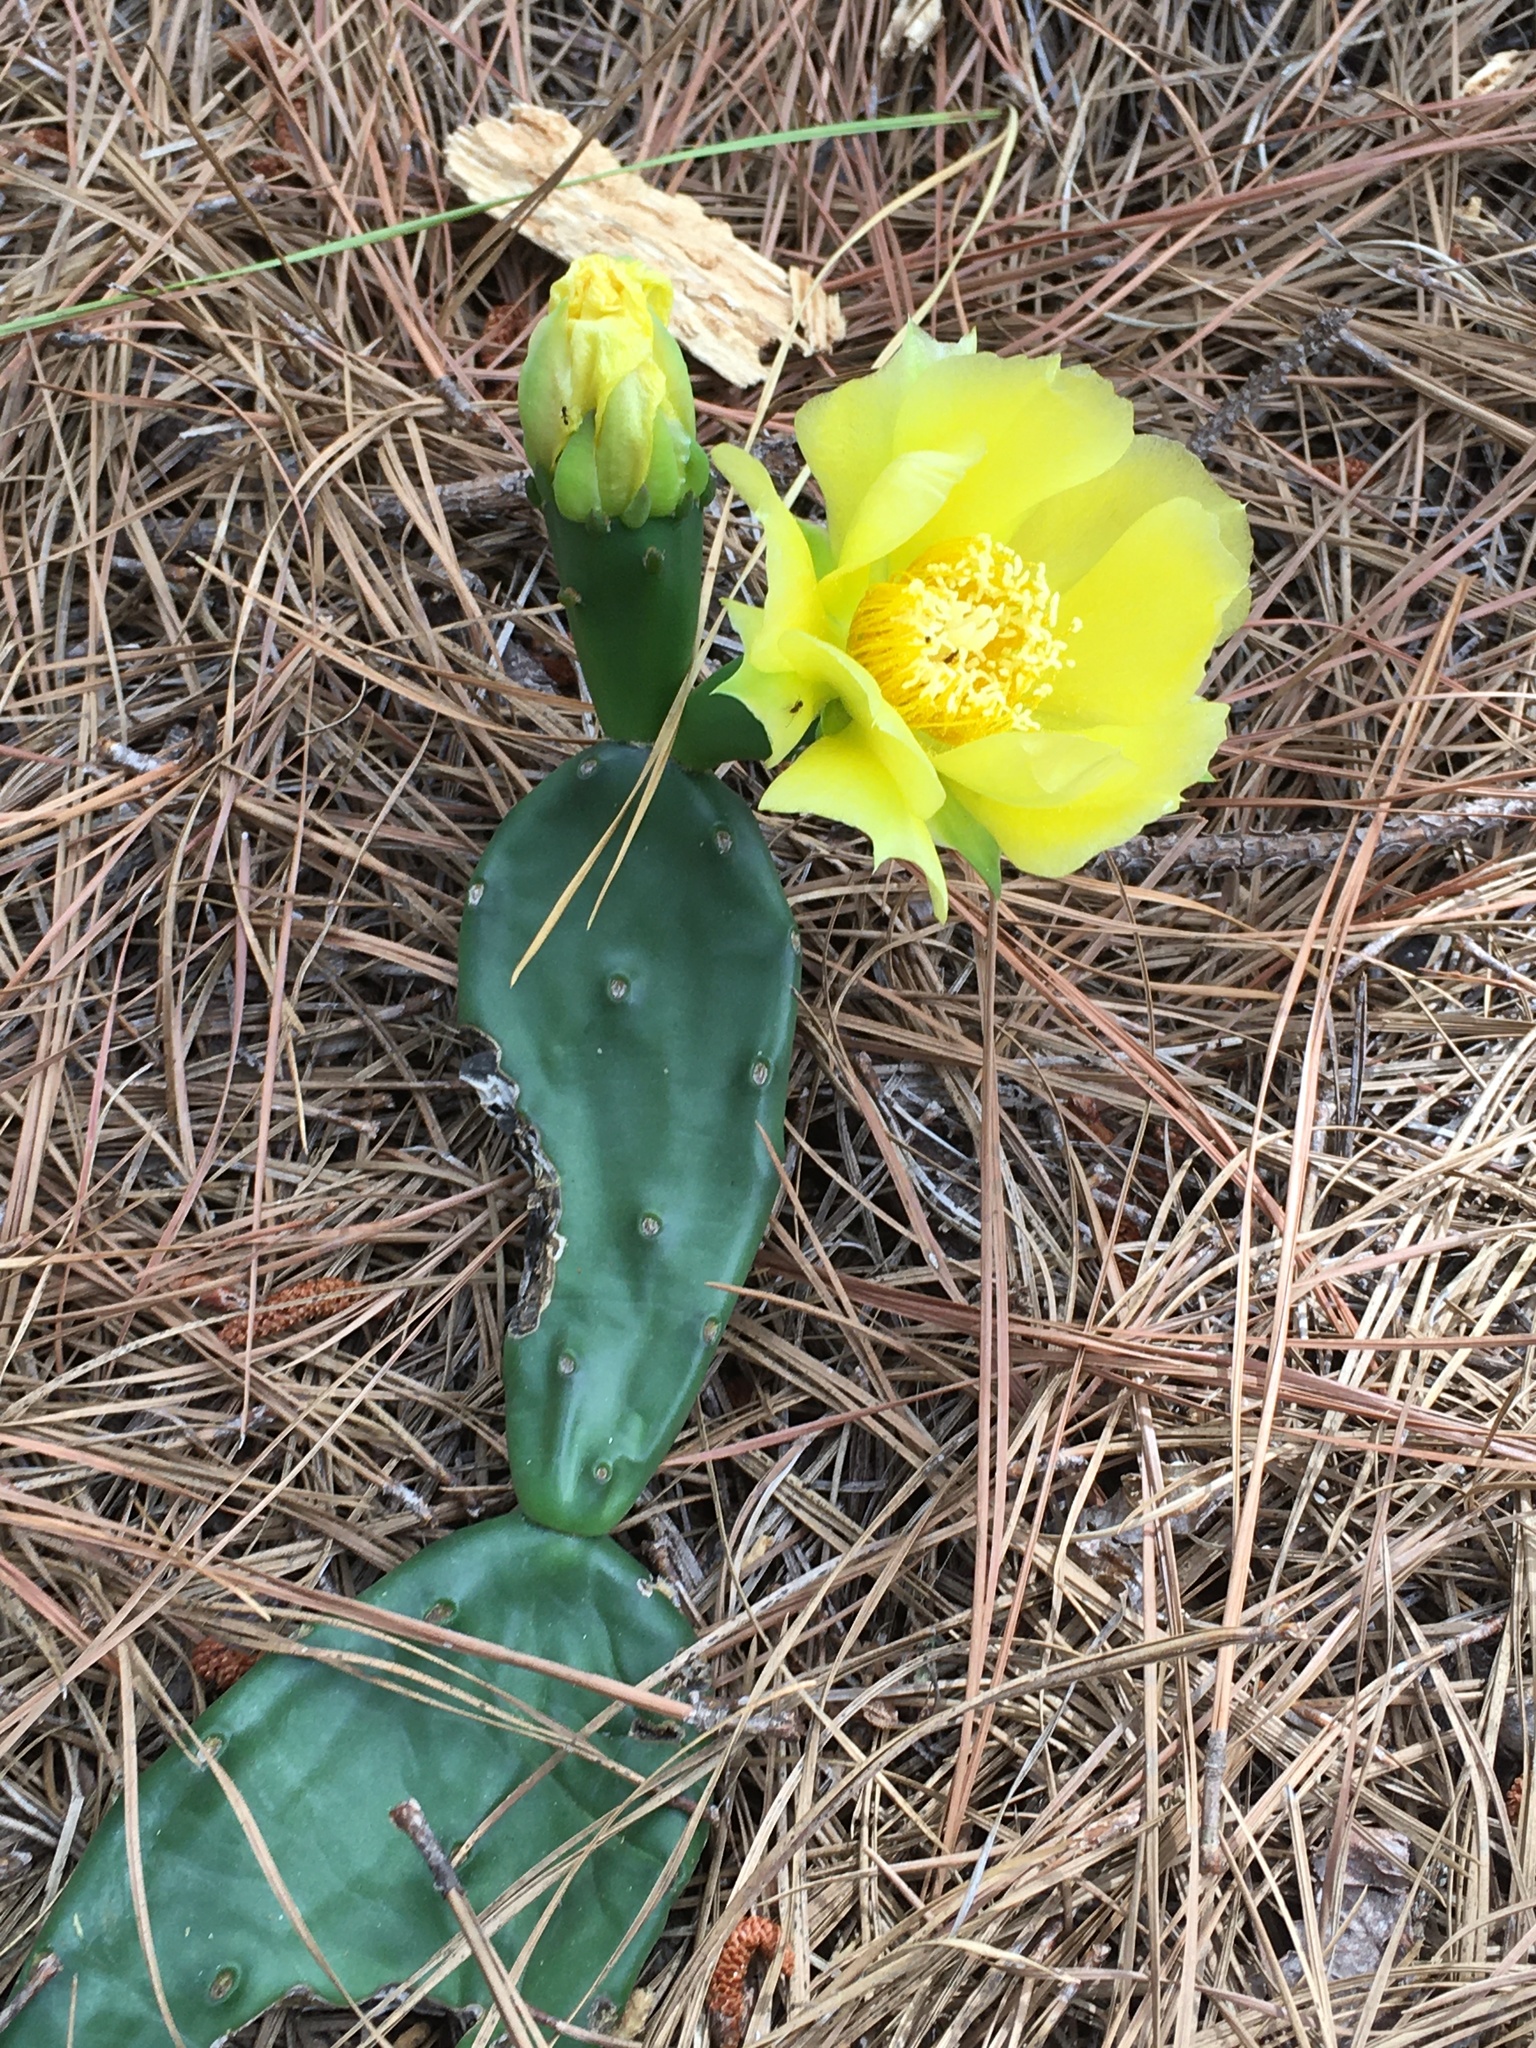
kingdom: Plantae
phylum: Tracheophyta
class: Magnoliopsida
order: Caryophyllales
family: Cactaceae
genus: Opuntia
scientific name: Opuntia mesacantha
